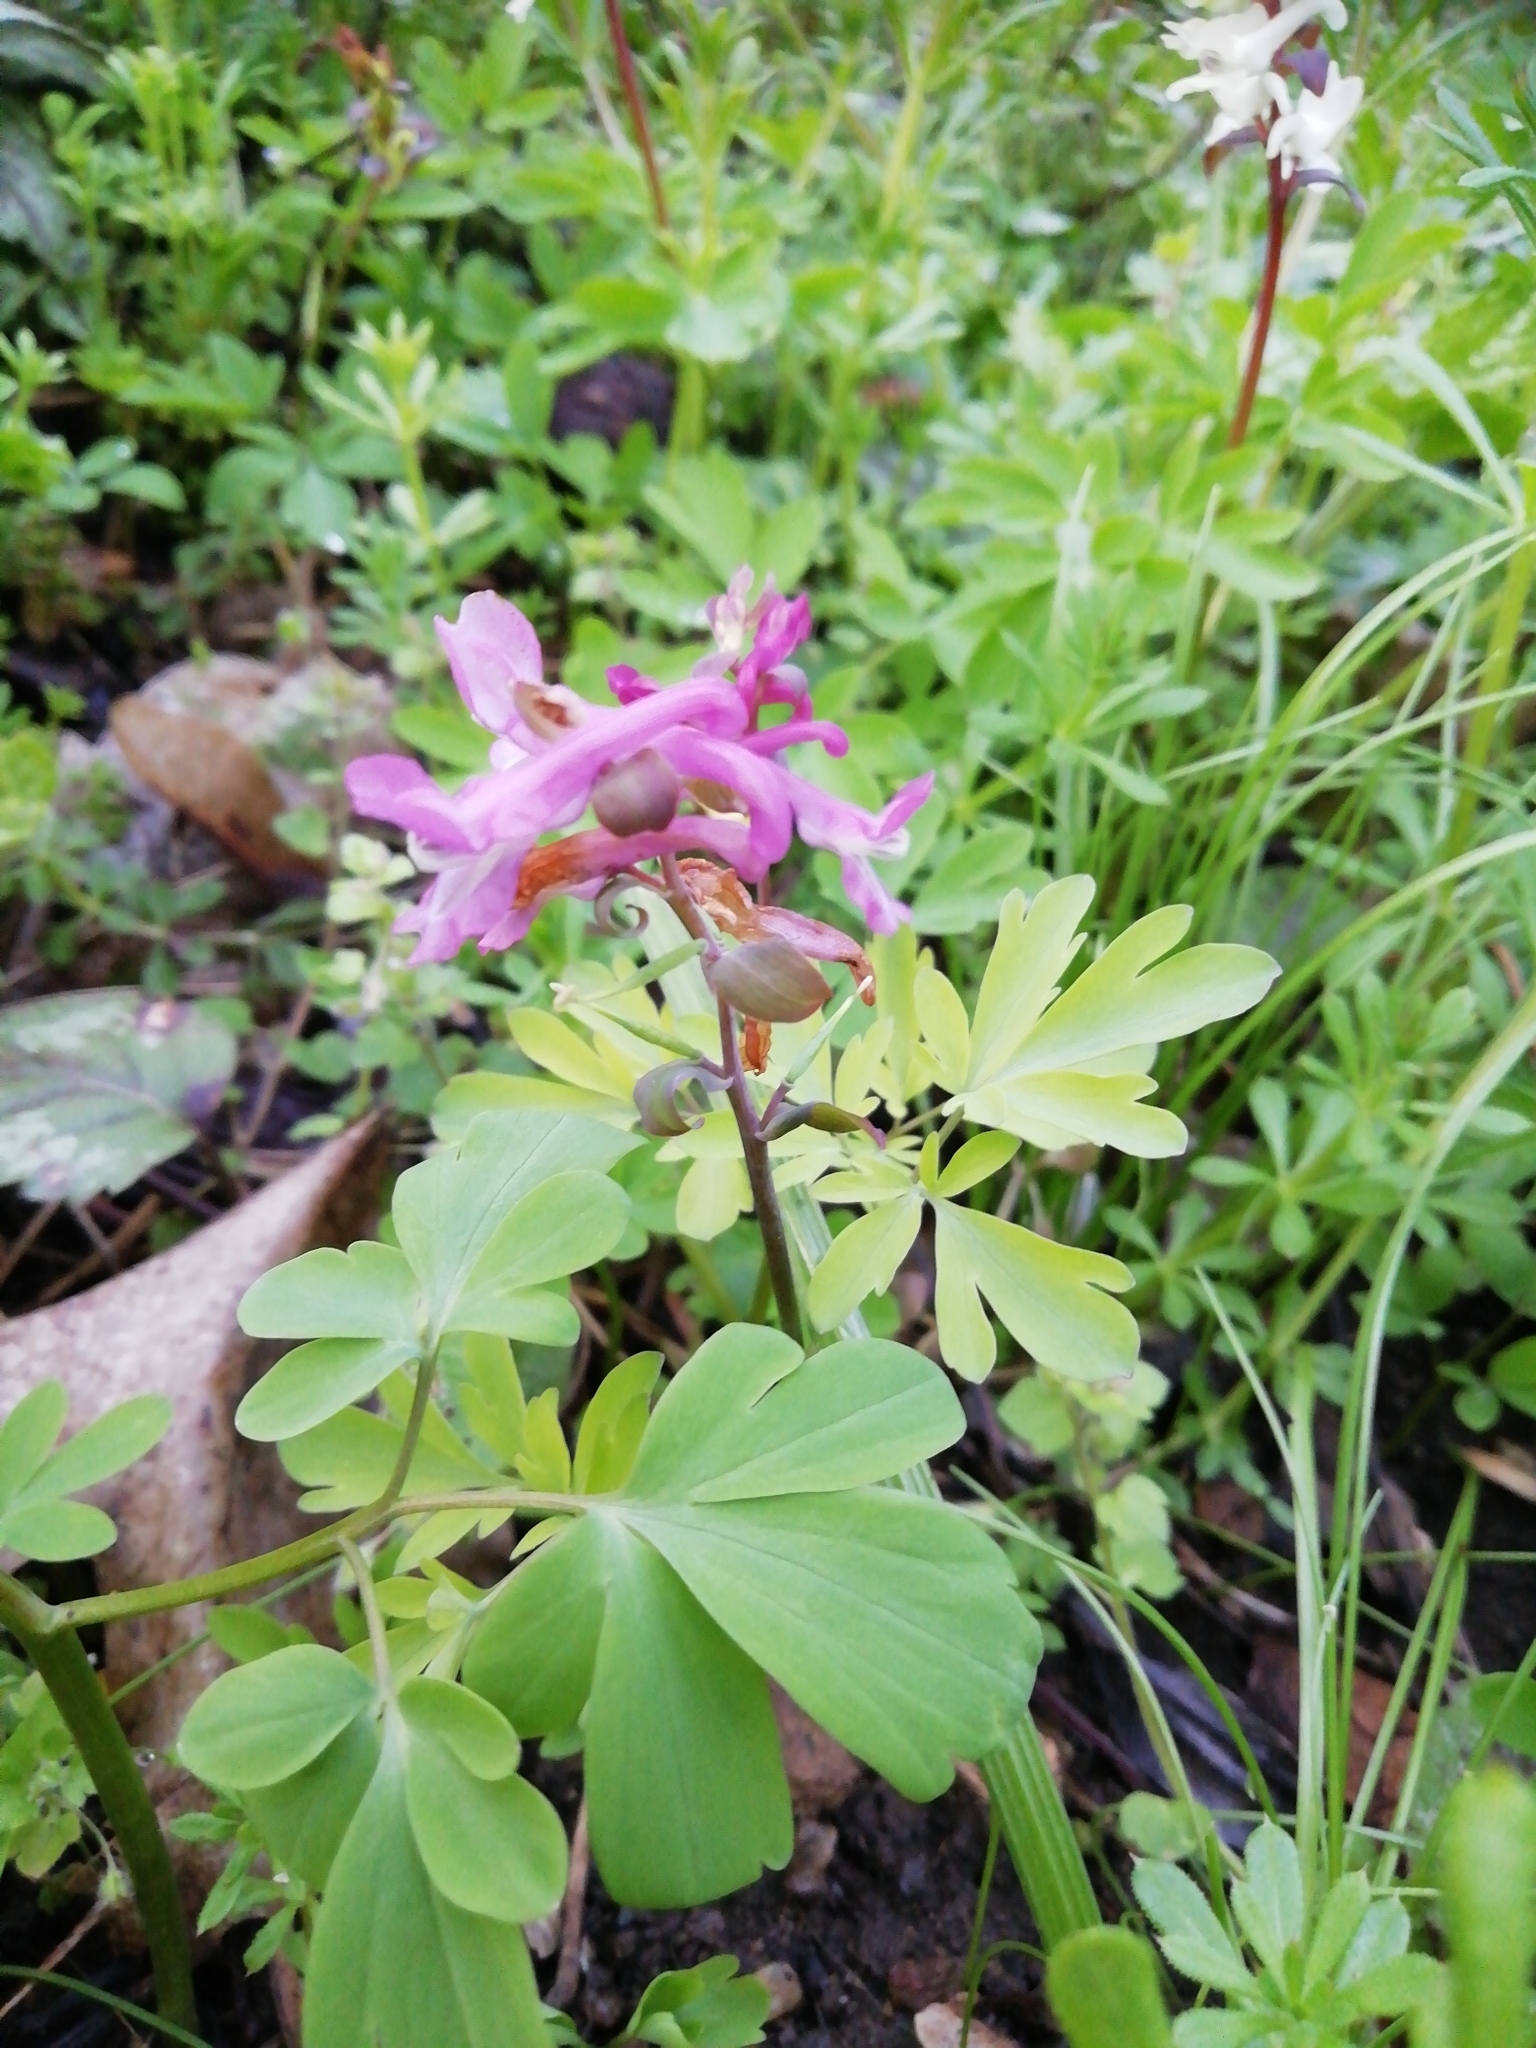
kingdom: Plantae
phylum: Tracheophyta
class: Magnoliopsida
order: Ranunculales
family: Papaveraceae
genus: Corydalis
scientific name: Corydalis cava
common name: Hollowroot
